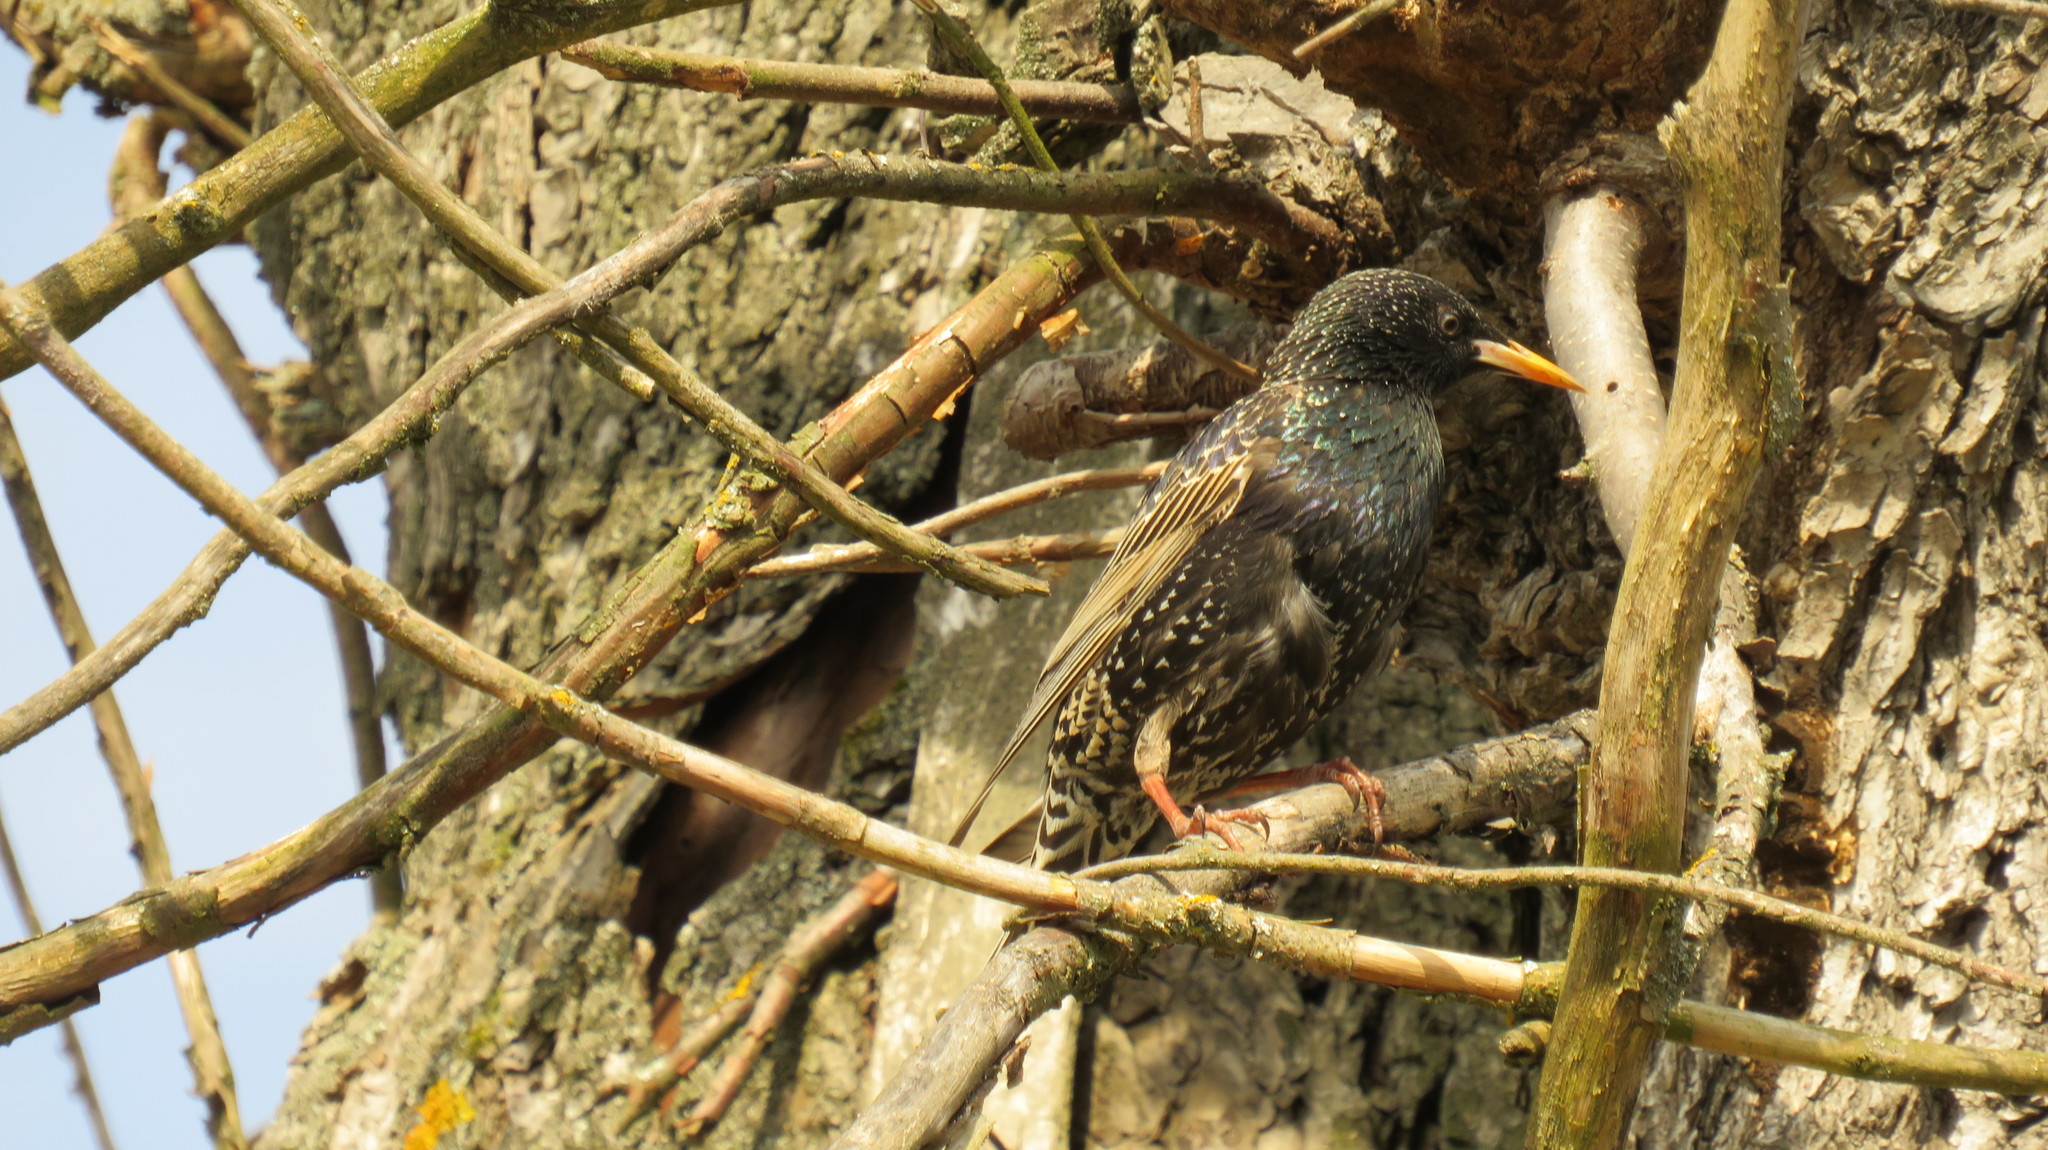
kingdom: Animalia
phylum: Chordata
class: Aves
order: Passeriformes
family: Sturnidae
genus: Sturnus
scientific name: Sturnus vulgaris
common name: Common starling
